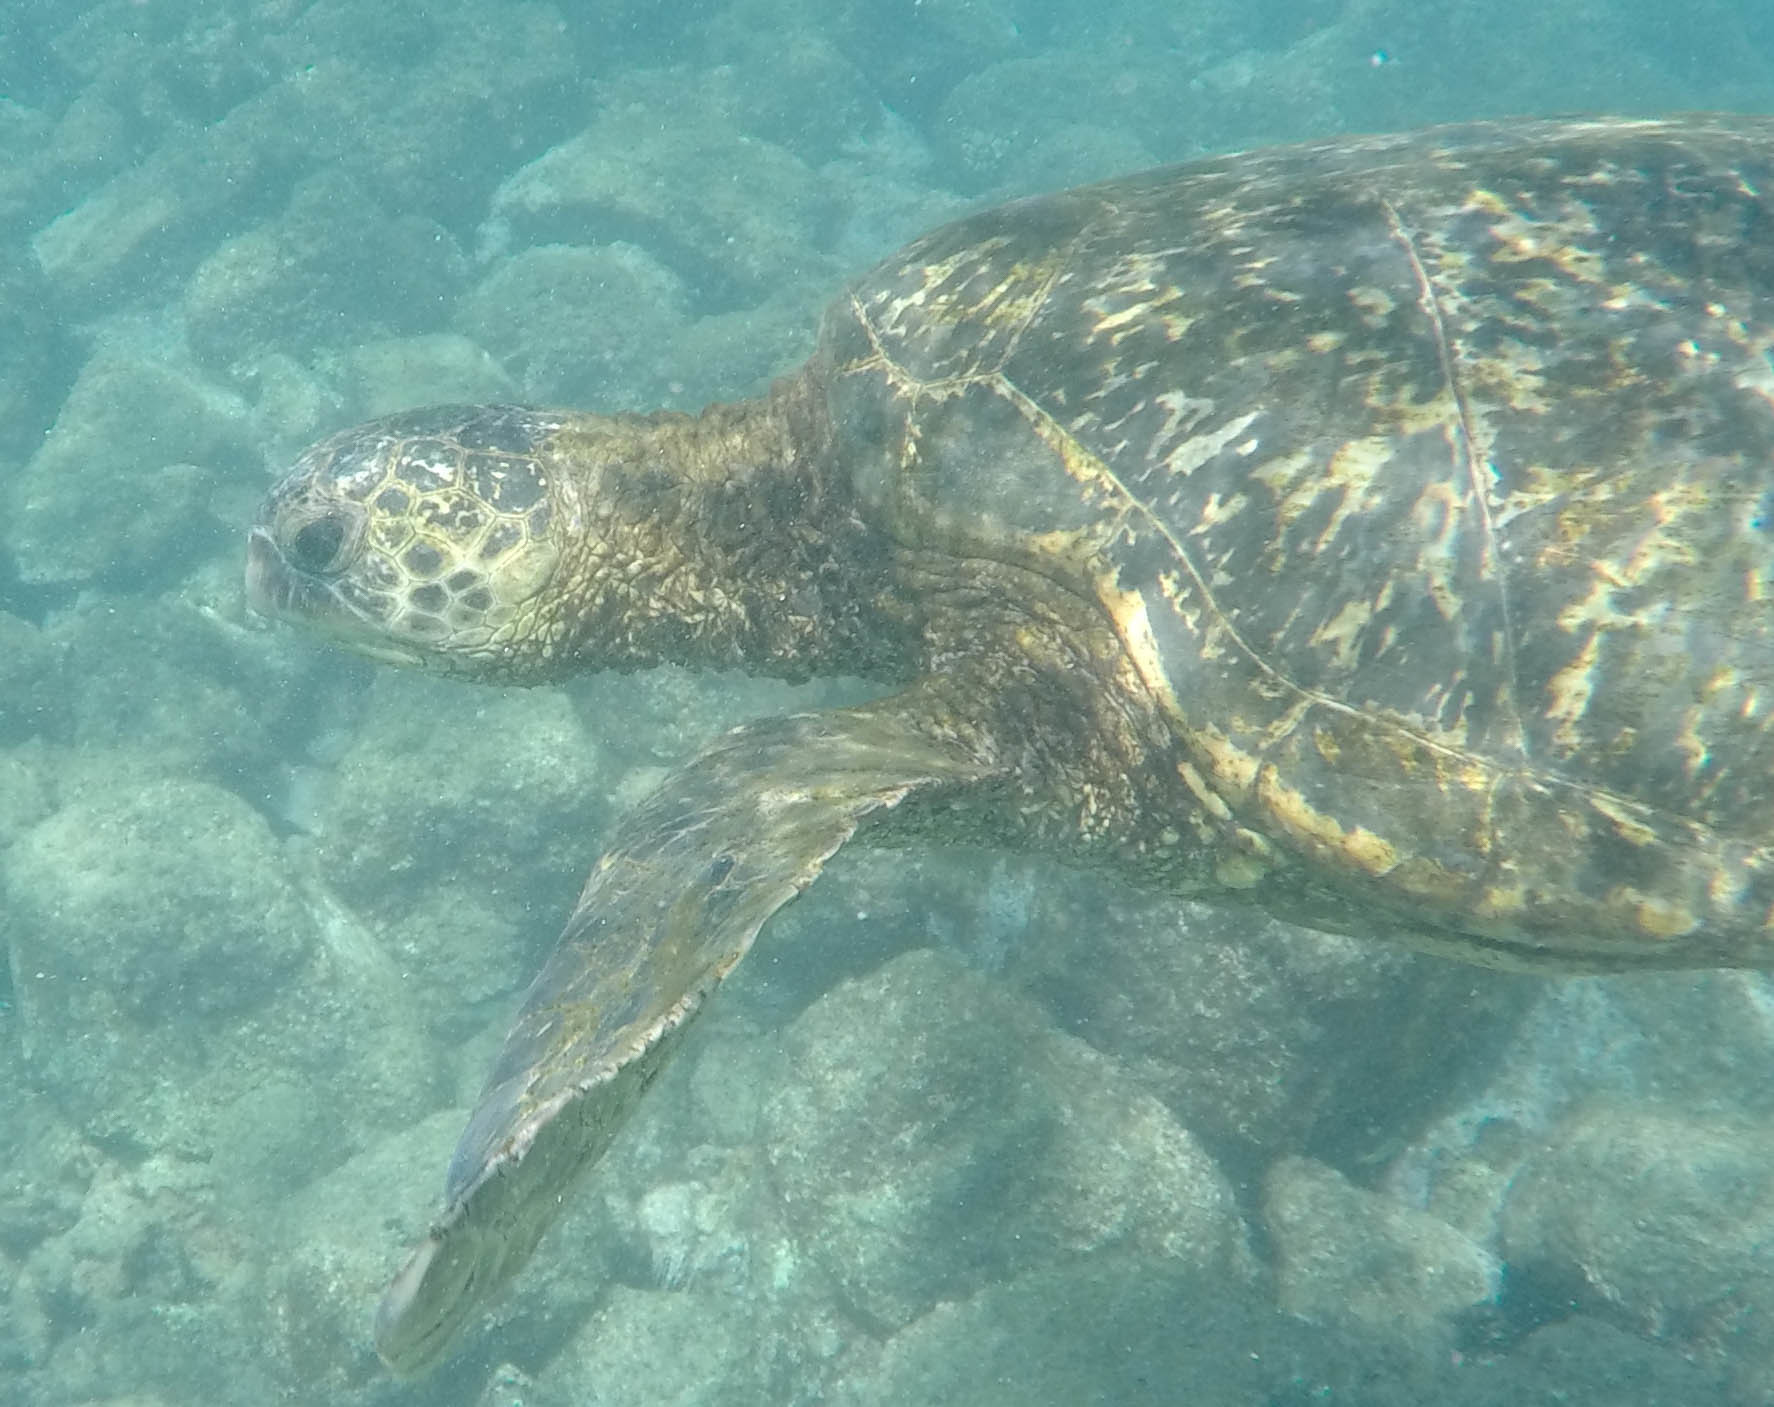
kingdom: Animalia
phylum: Chordata
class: Testudines
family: Cheloniidae
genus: Chelonia
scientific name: Chelonia mydas
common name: Green turtle
